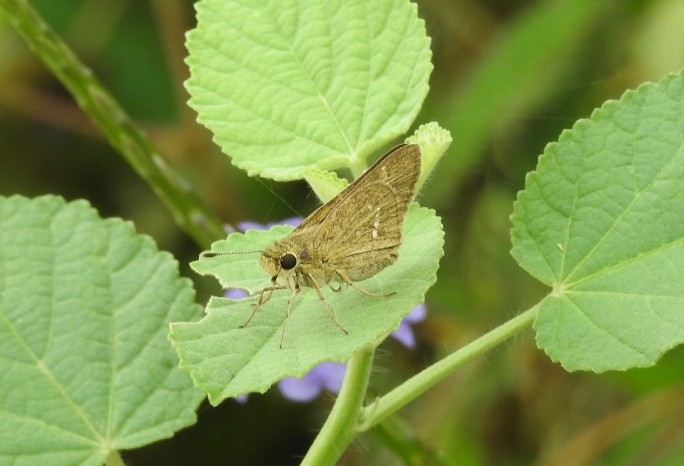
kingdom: Animalia
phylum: Arthropoda
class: Insecta
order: Lepidoptera
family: Hesperiidae
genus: Parnara
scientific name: Parnara naso
